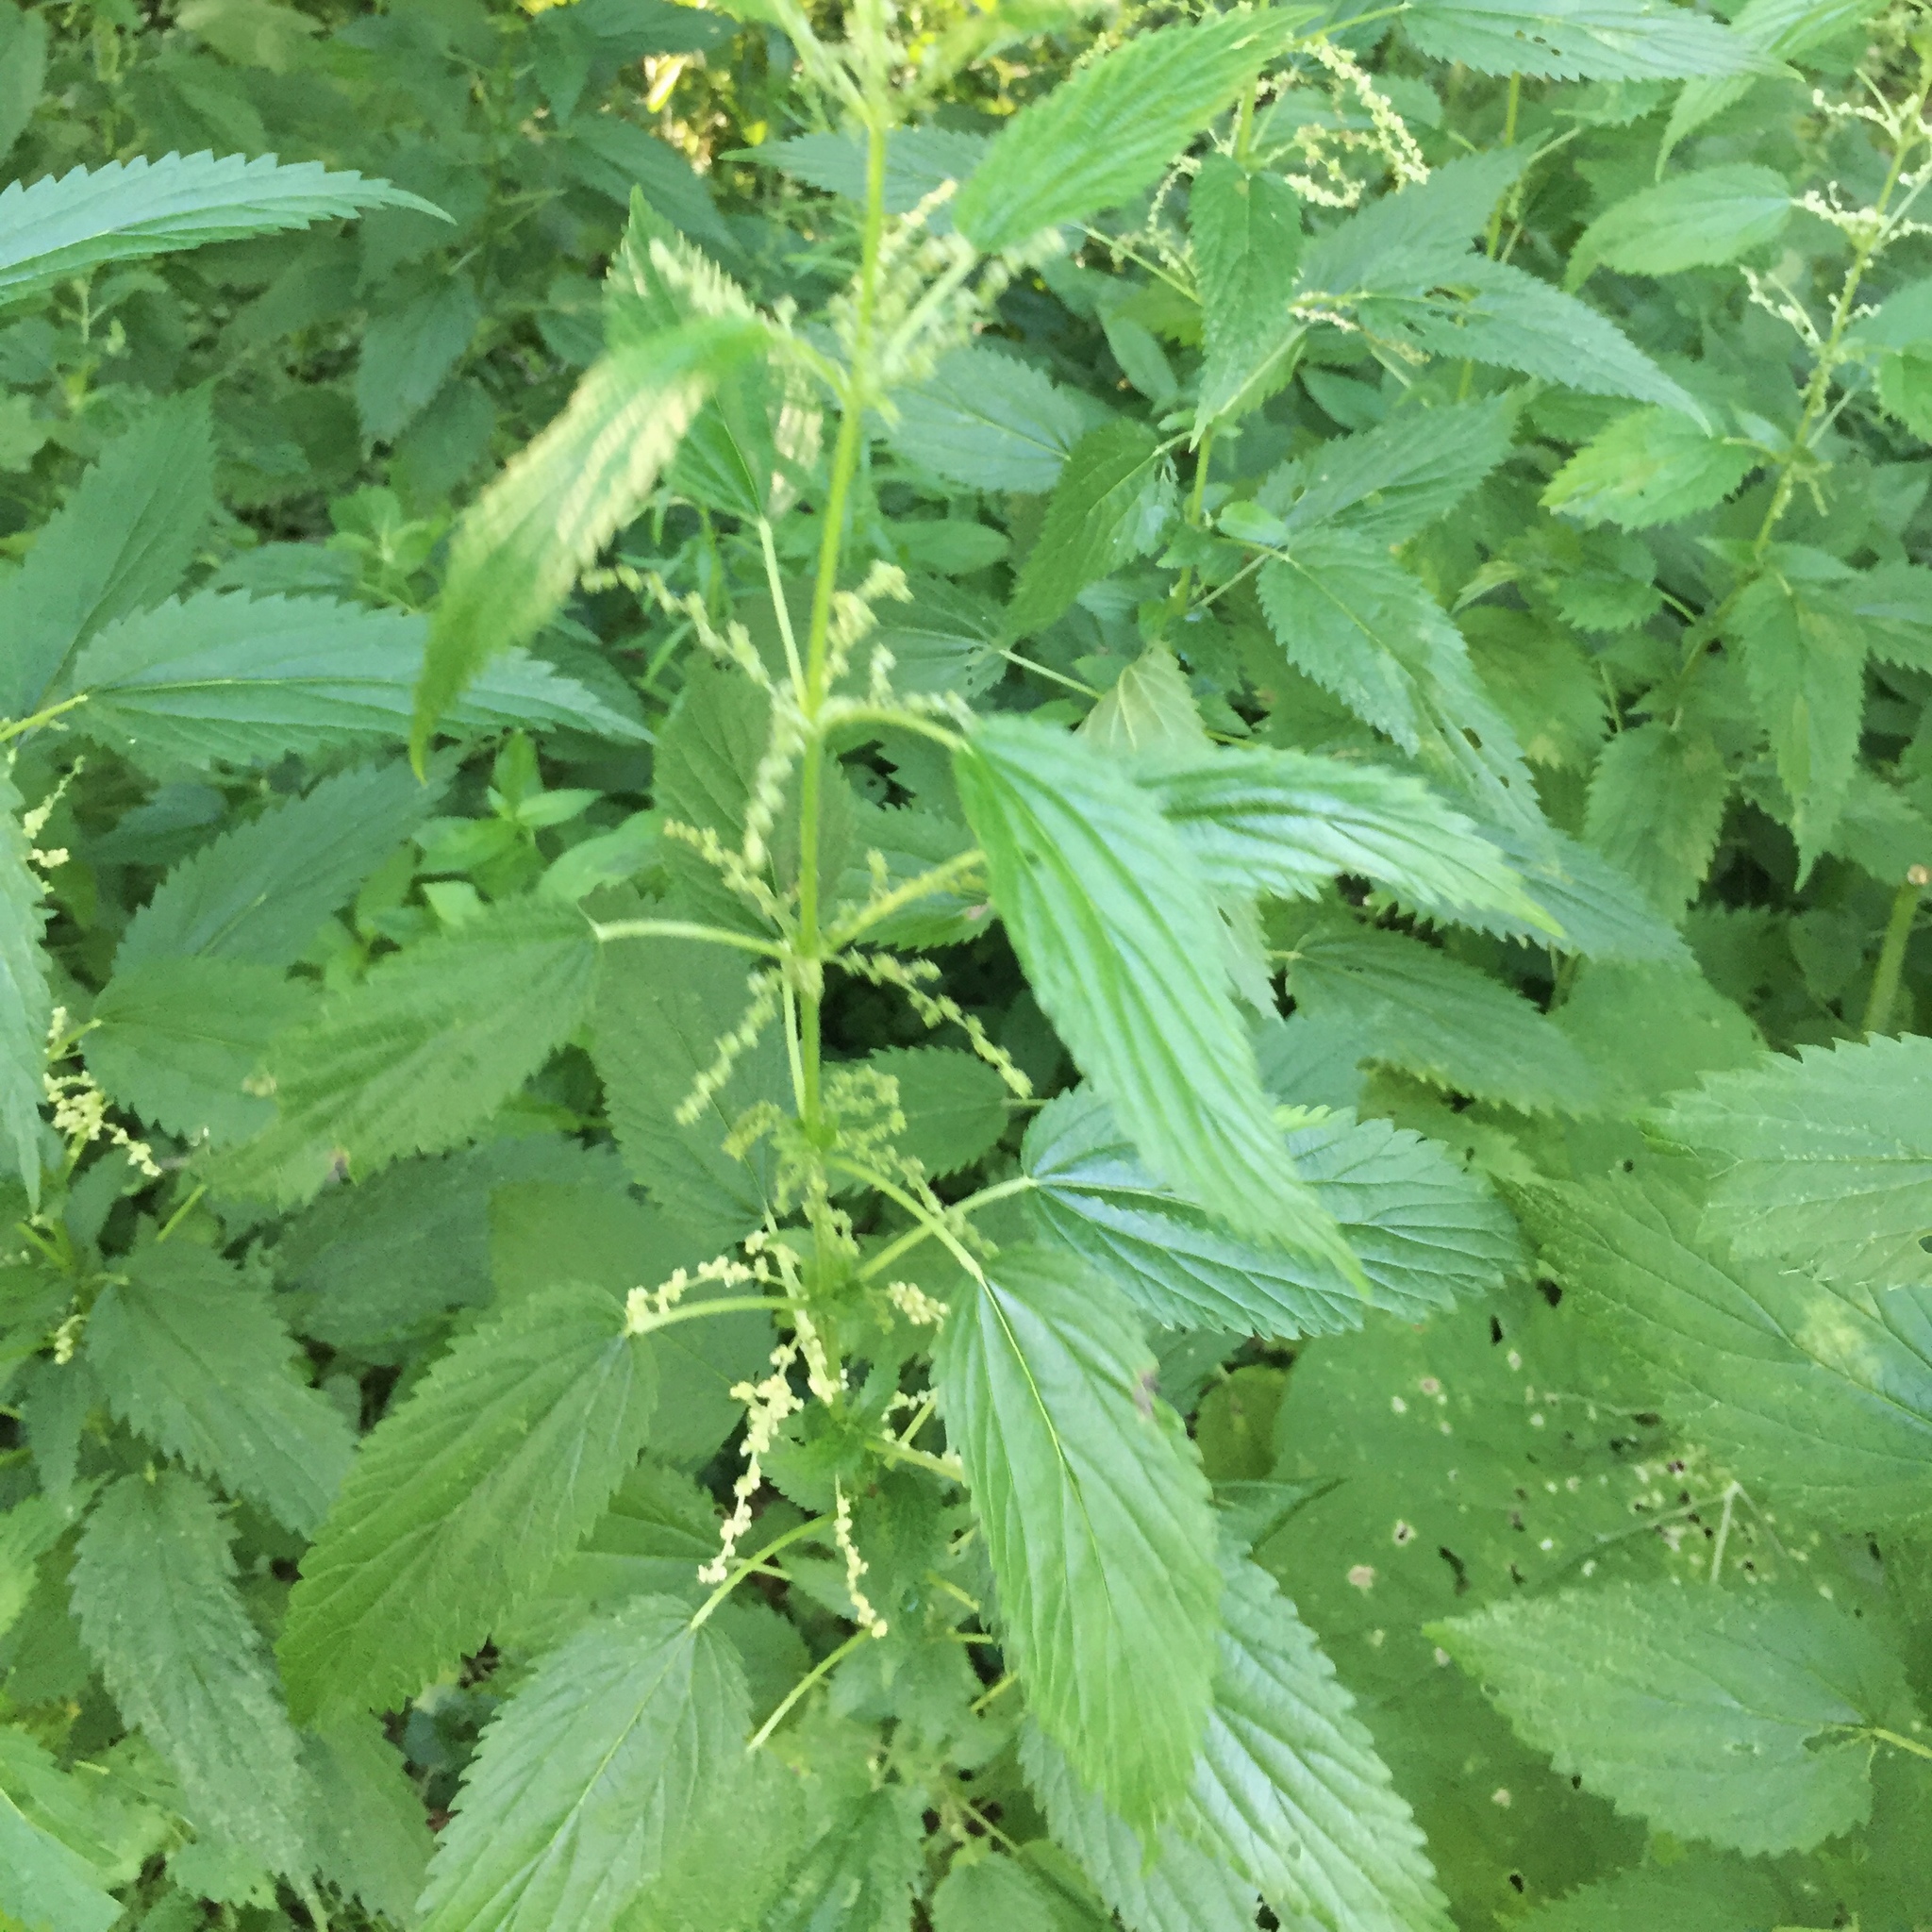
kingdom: Plantae
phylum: Tracheophyta
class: Magnoliopsida
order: Rosales
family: Urticaceae
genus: Urtica
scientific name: Urtica gracilis
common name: Slender stinging nettle
